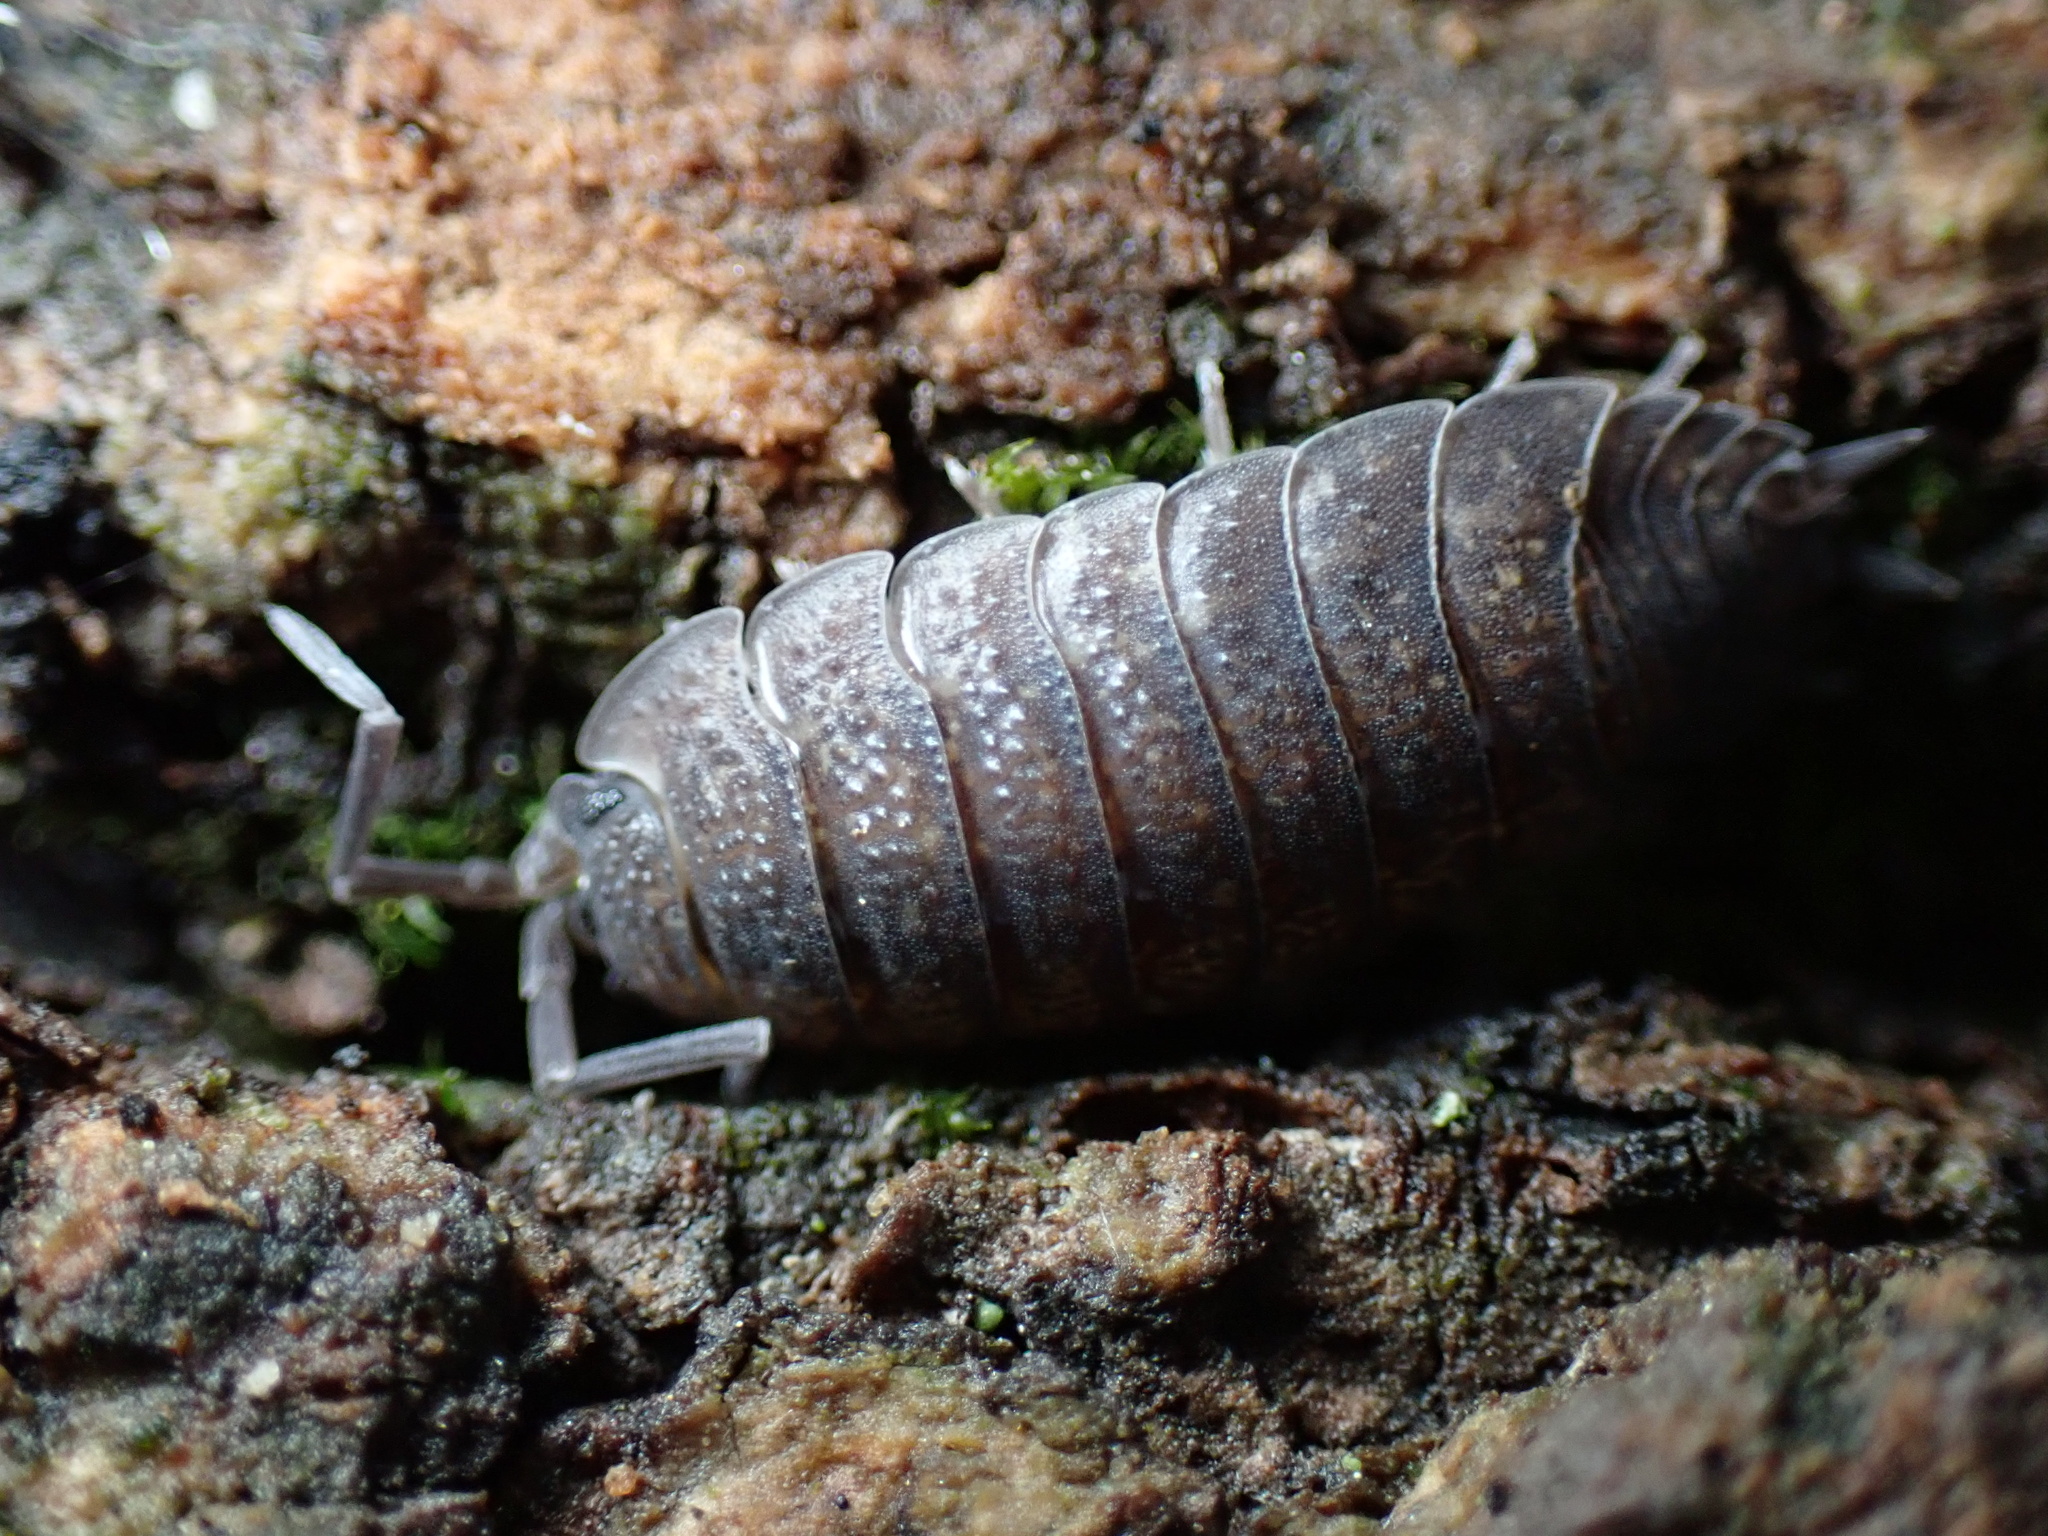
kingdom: Animalia
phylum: Arthropoda
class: Malacostraca
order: Isopoda
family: Porcellionidae
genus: Porcellio
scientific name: Porcellio scaber
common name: Common rough woodlouse
